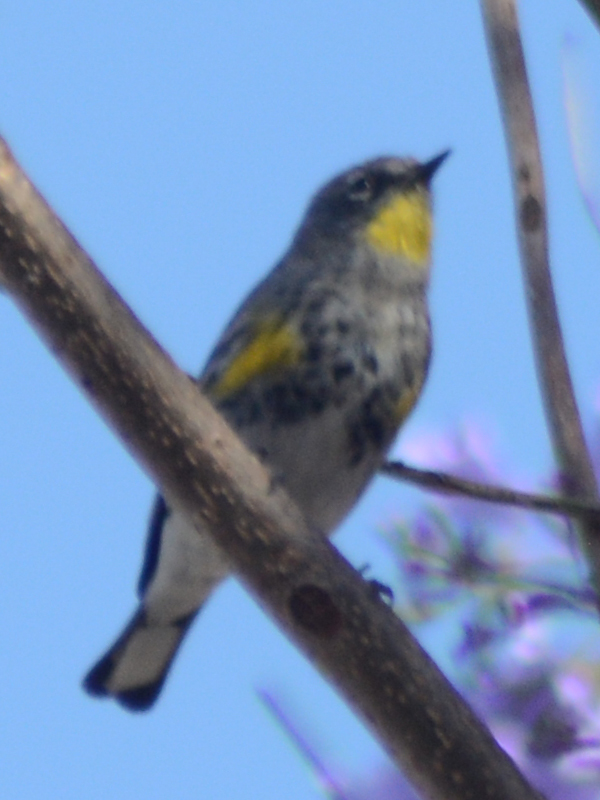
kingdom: Animalia
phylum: Chordata
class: Aves
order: Passeriformes
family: Parulidae
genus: Setophaga
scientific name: Setophaga auduboni
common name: Audubon's warbler
